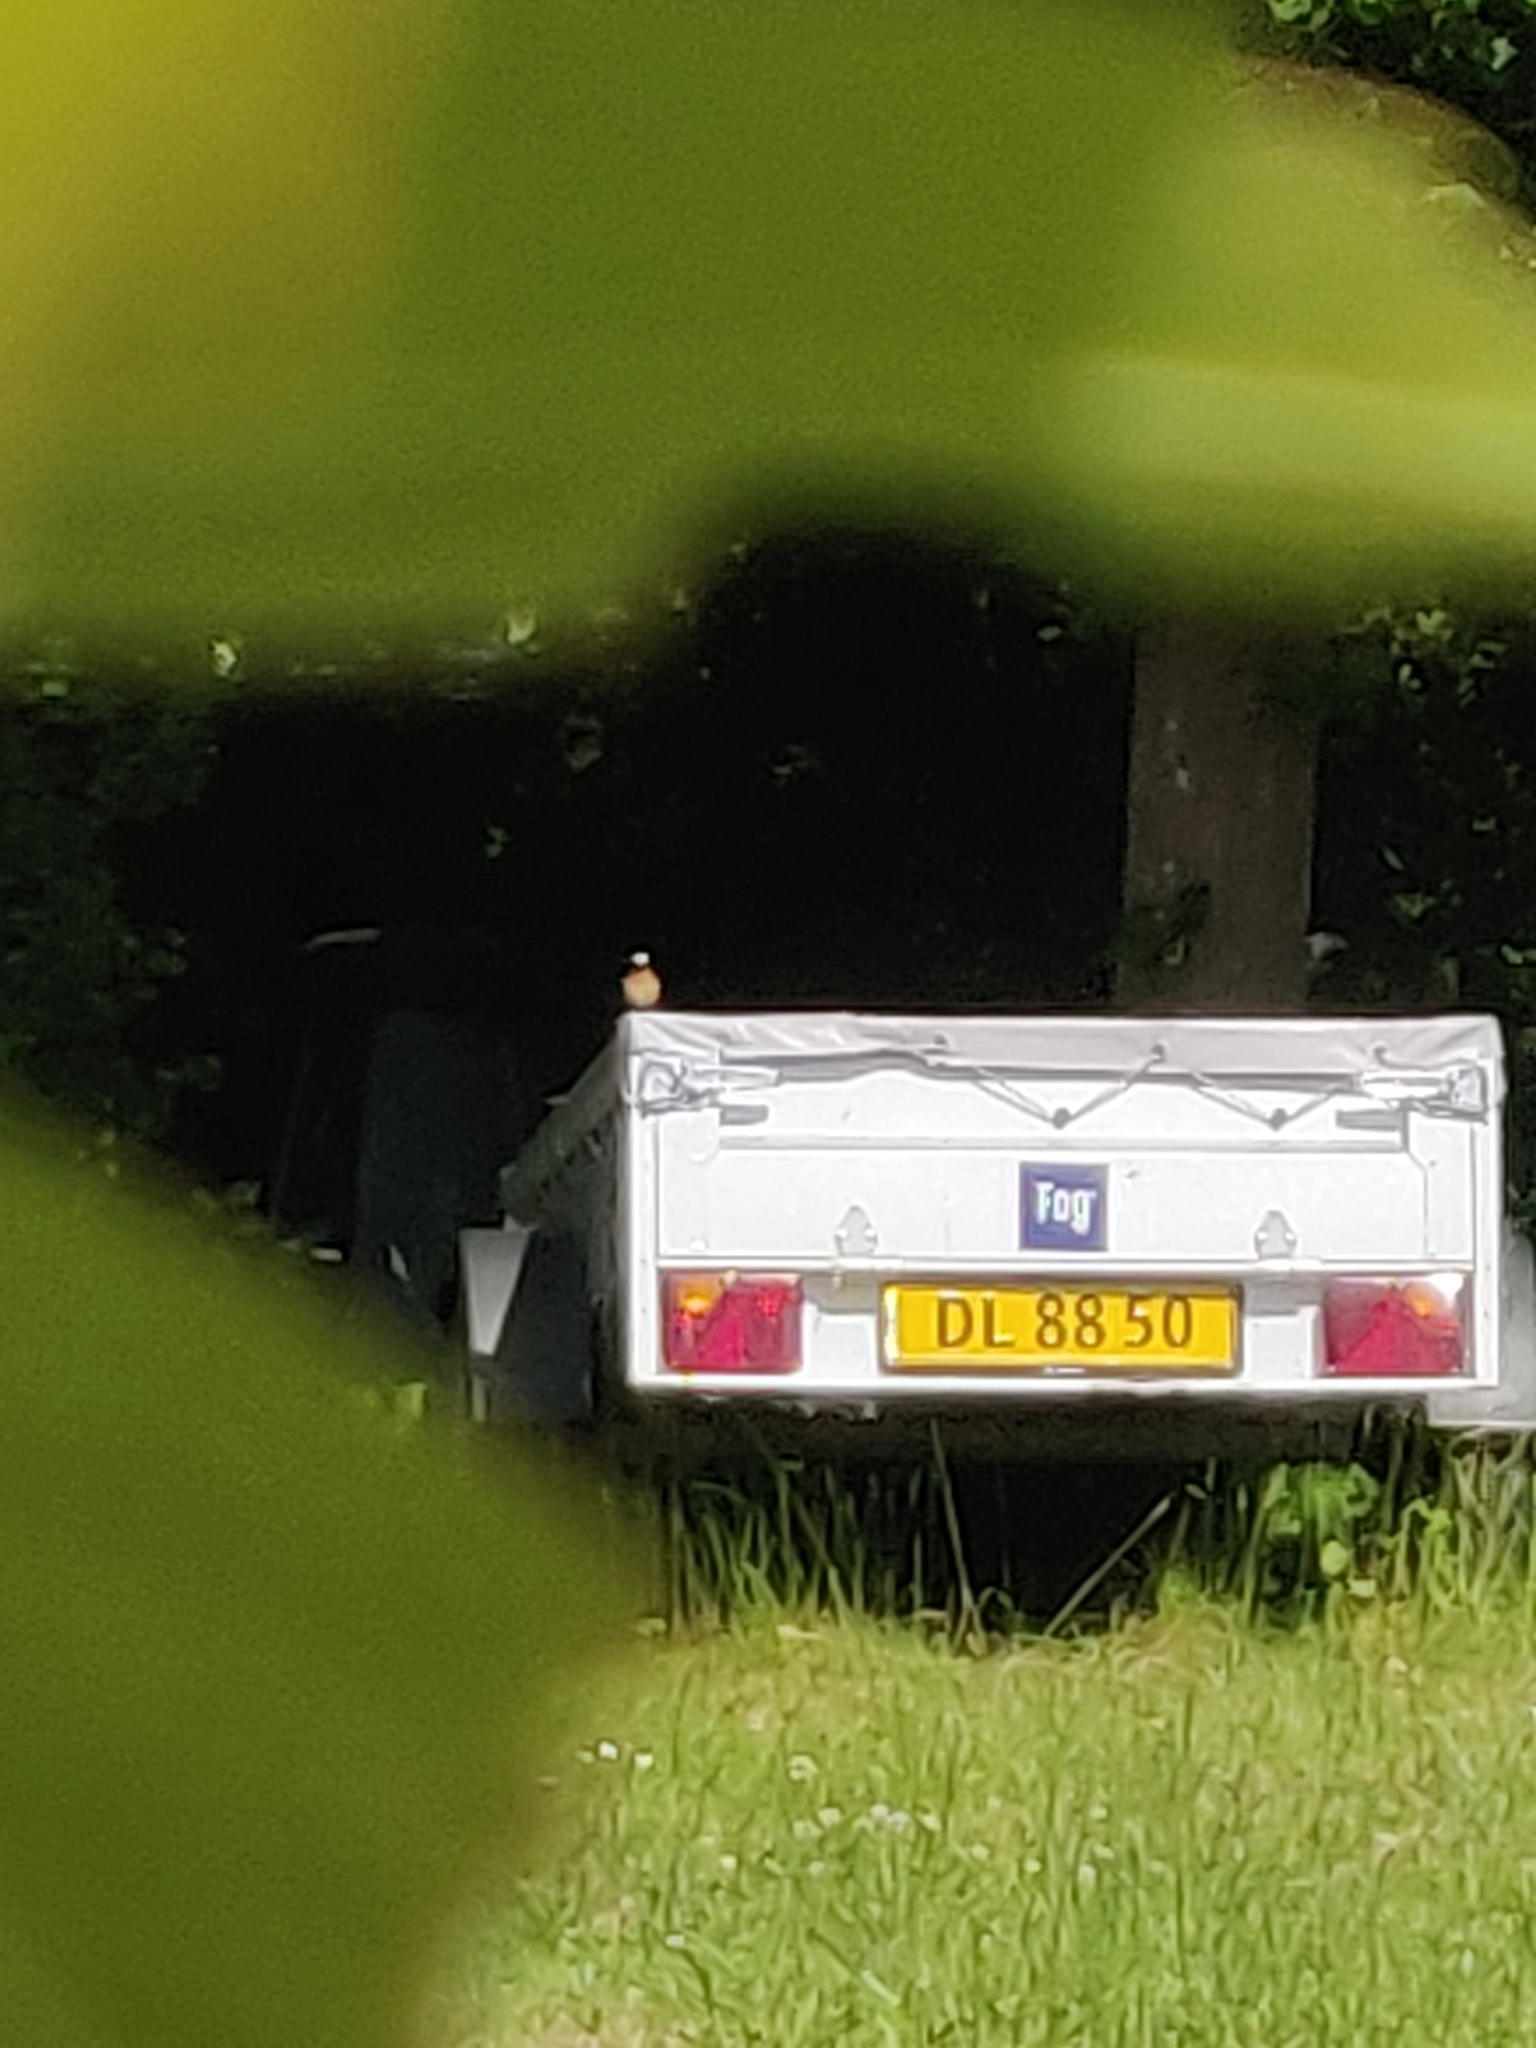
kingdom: Animalia
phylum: Chordata
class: Aves
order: Passeriformes
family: Muscicapidae
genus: Phoenicurus
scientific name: Phoenicurus phoenicurus
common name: Common redstart
